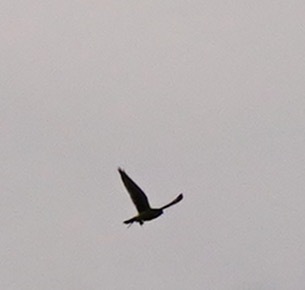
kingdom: Animalia
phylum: Chordata
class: Aves
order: Falconiformes
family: Falconidae
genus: Falco
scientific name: Falco sparverius
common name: American kestrel
